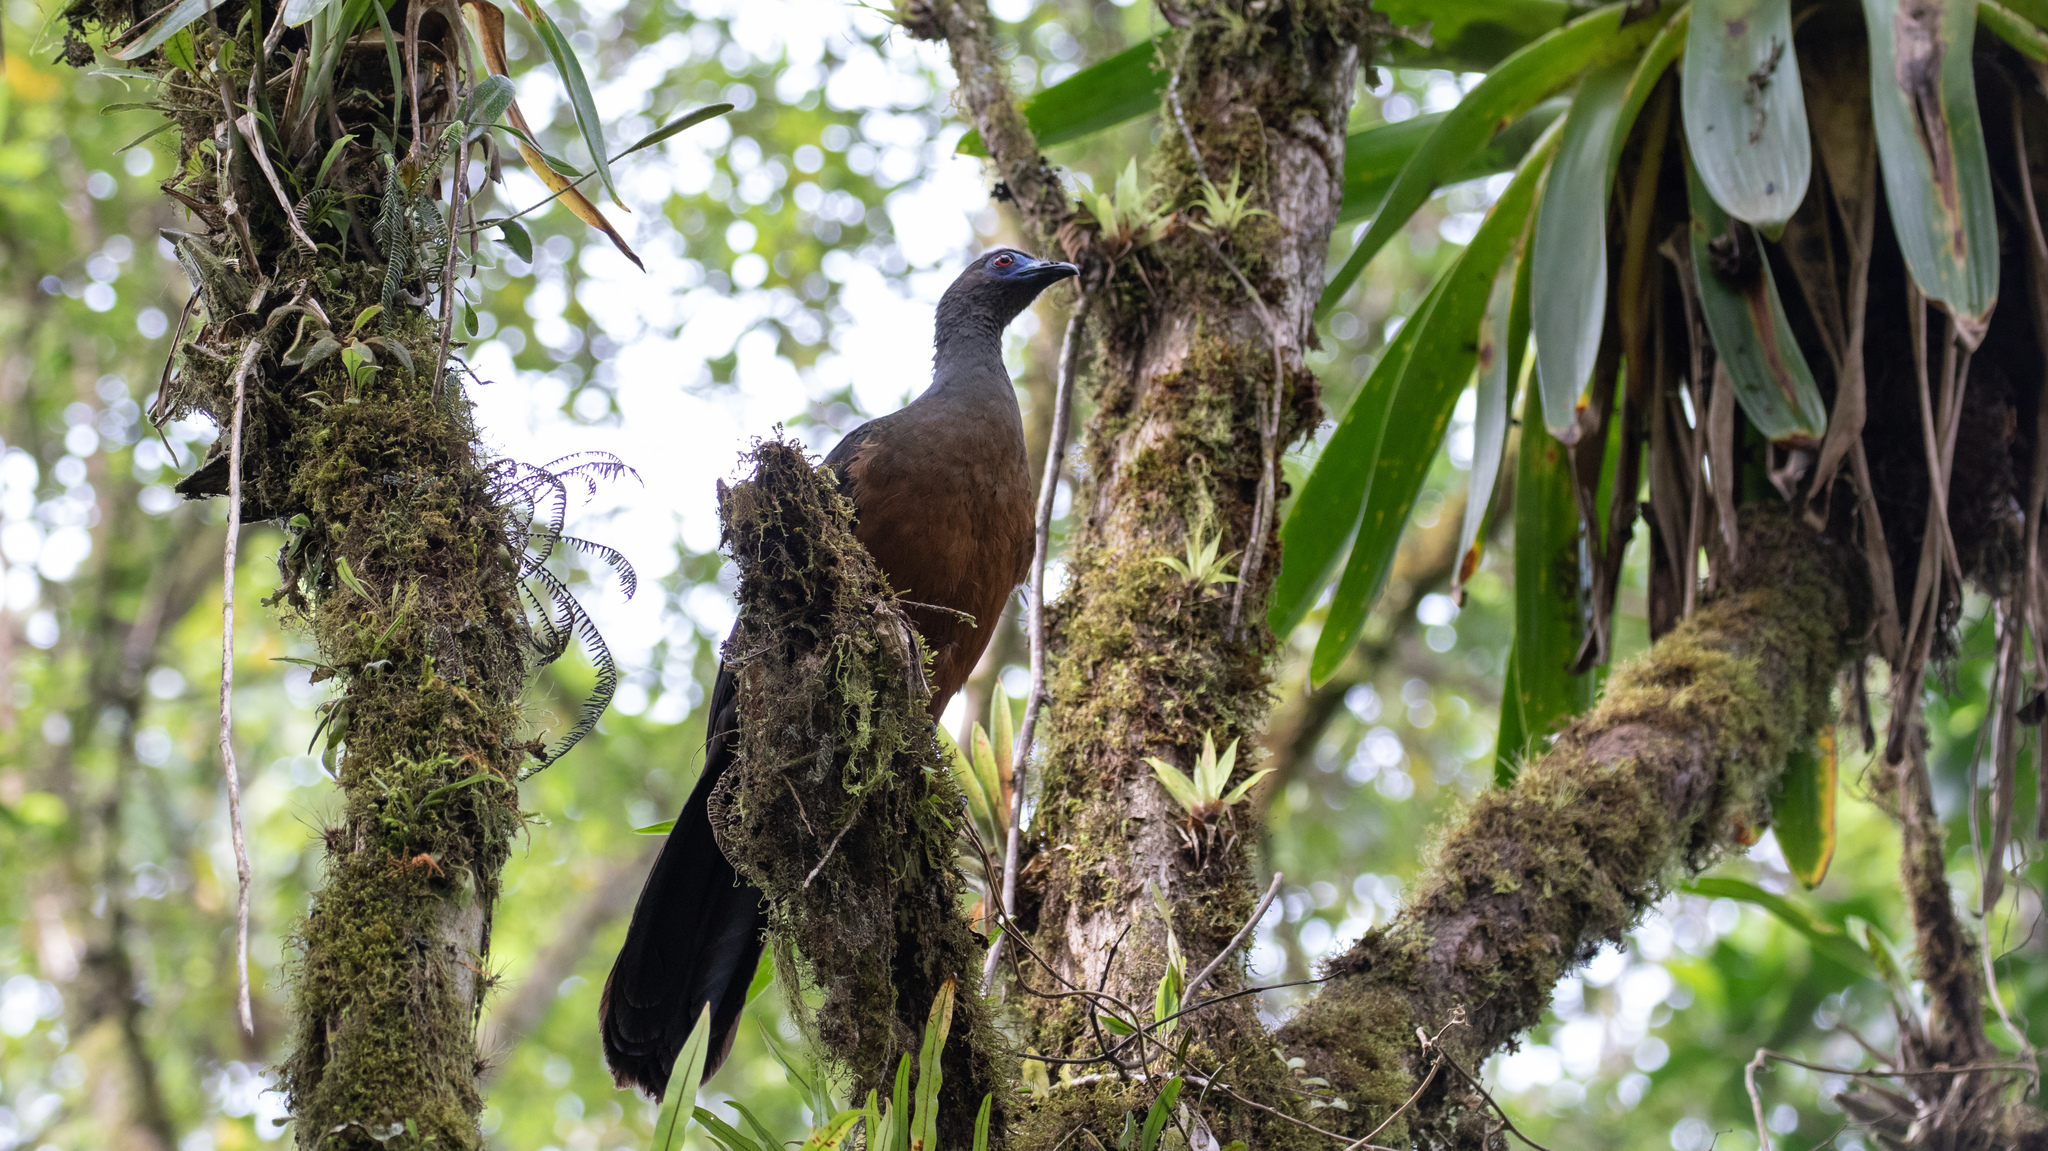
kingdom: Animalia
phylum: Chordata
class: Aves
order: Galliformes
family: Cracidae
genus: Chamaepetes
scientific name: Chamaepetes goudotii
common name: Sickle-winged guan
